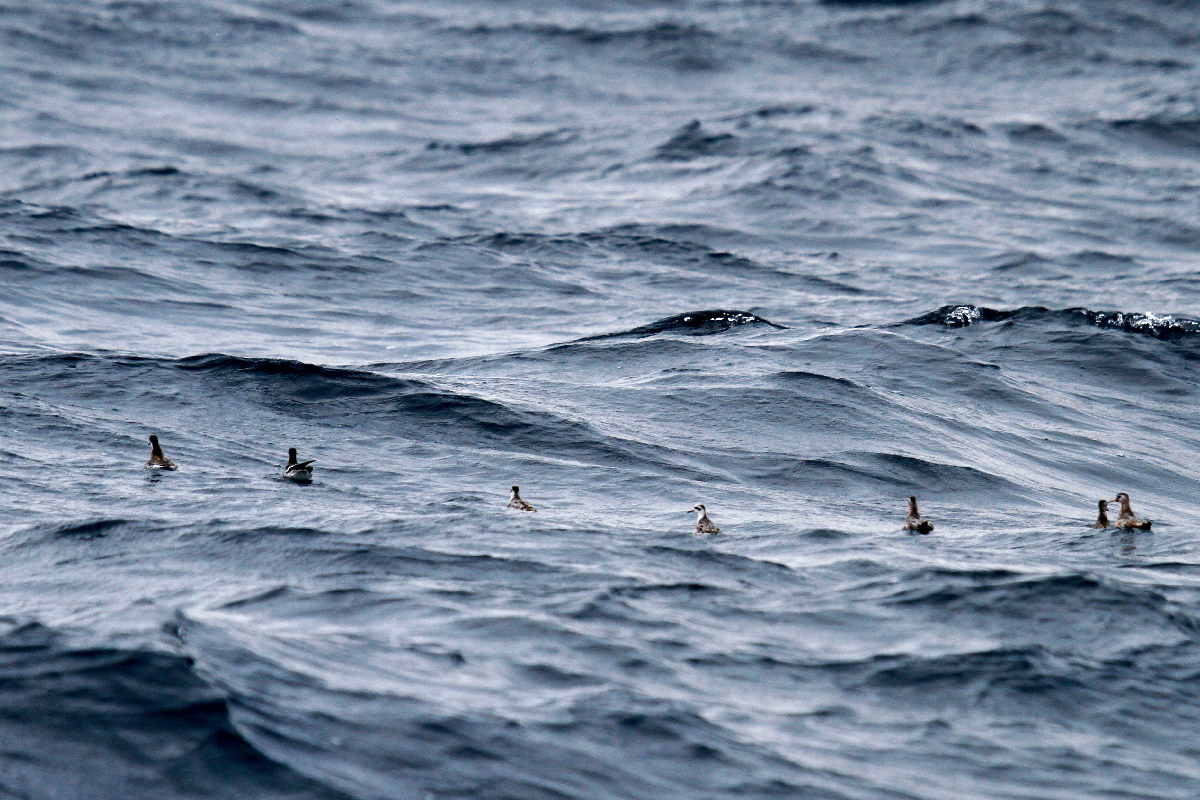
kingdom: Animalia
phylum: Chordata
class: Aves
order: Charadriiformes
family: Scolopacidae
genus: Phalaropus
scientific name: Phalaropus fulicarius
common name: Red phalarope
